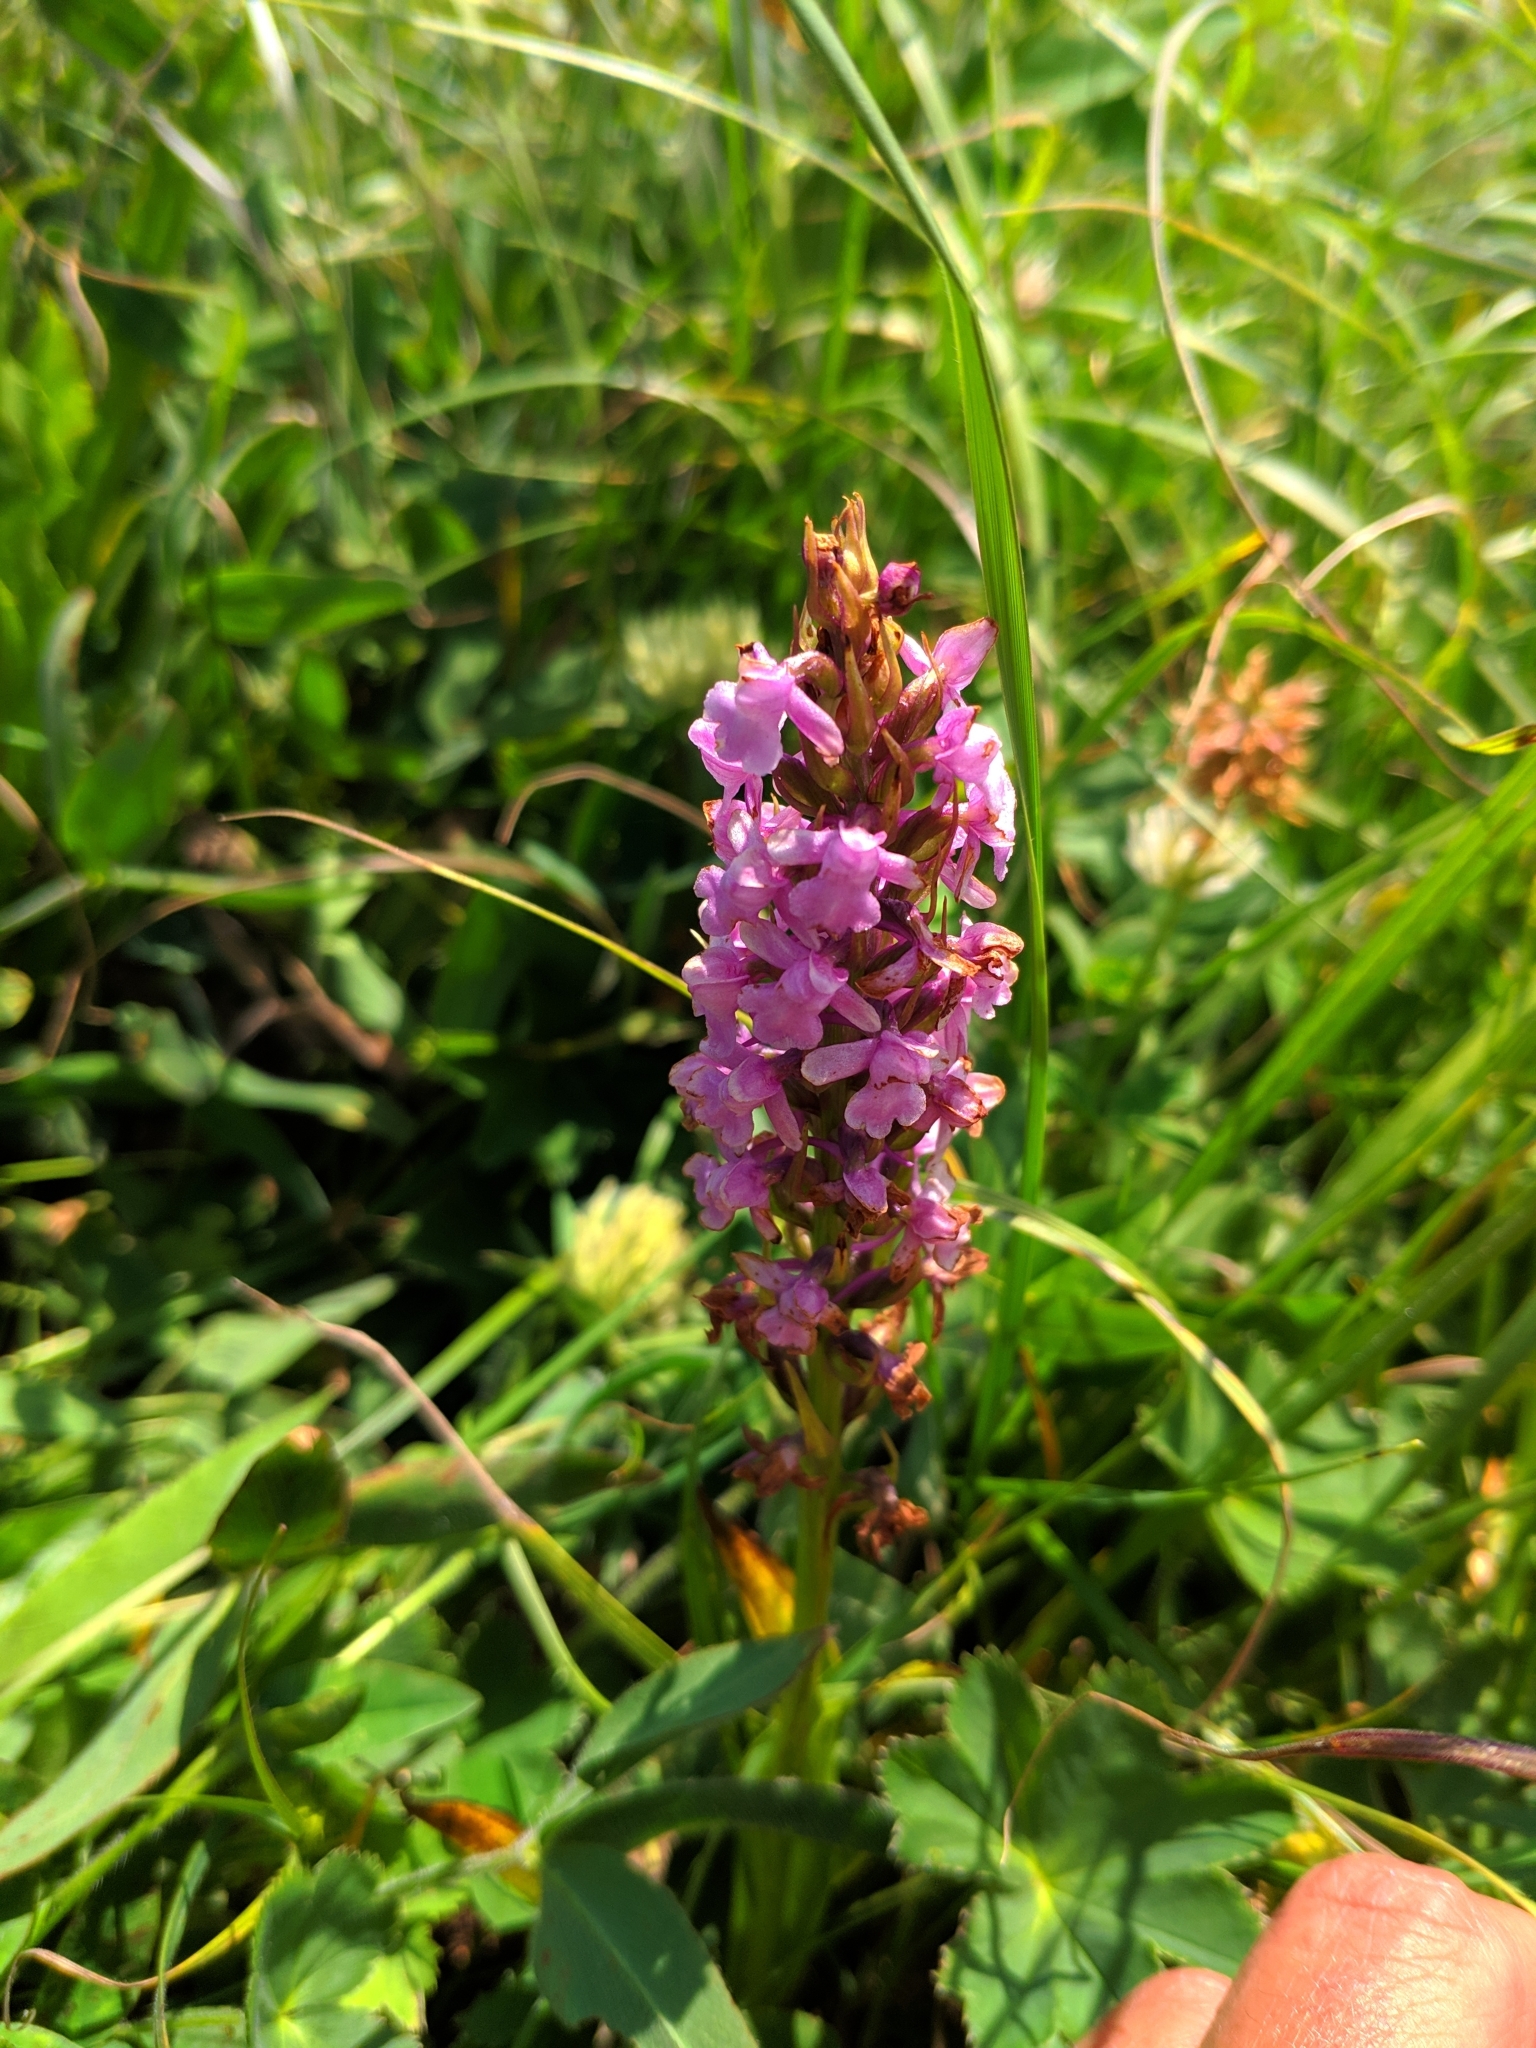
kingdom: Plantae
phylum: Tracheophyta
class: Liliopsida
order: Asparagales
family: Orchidaceae
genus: Gymnadenia
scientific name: Gymnadenia conopsea
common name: Fragrant orchid
